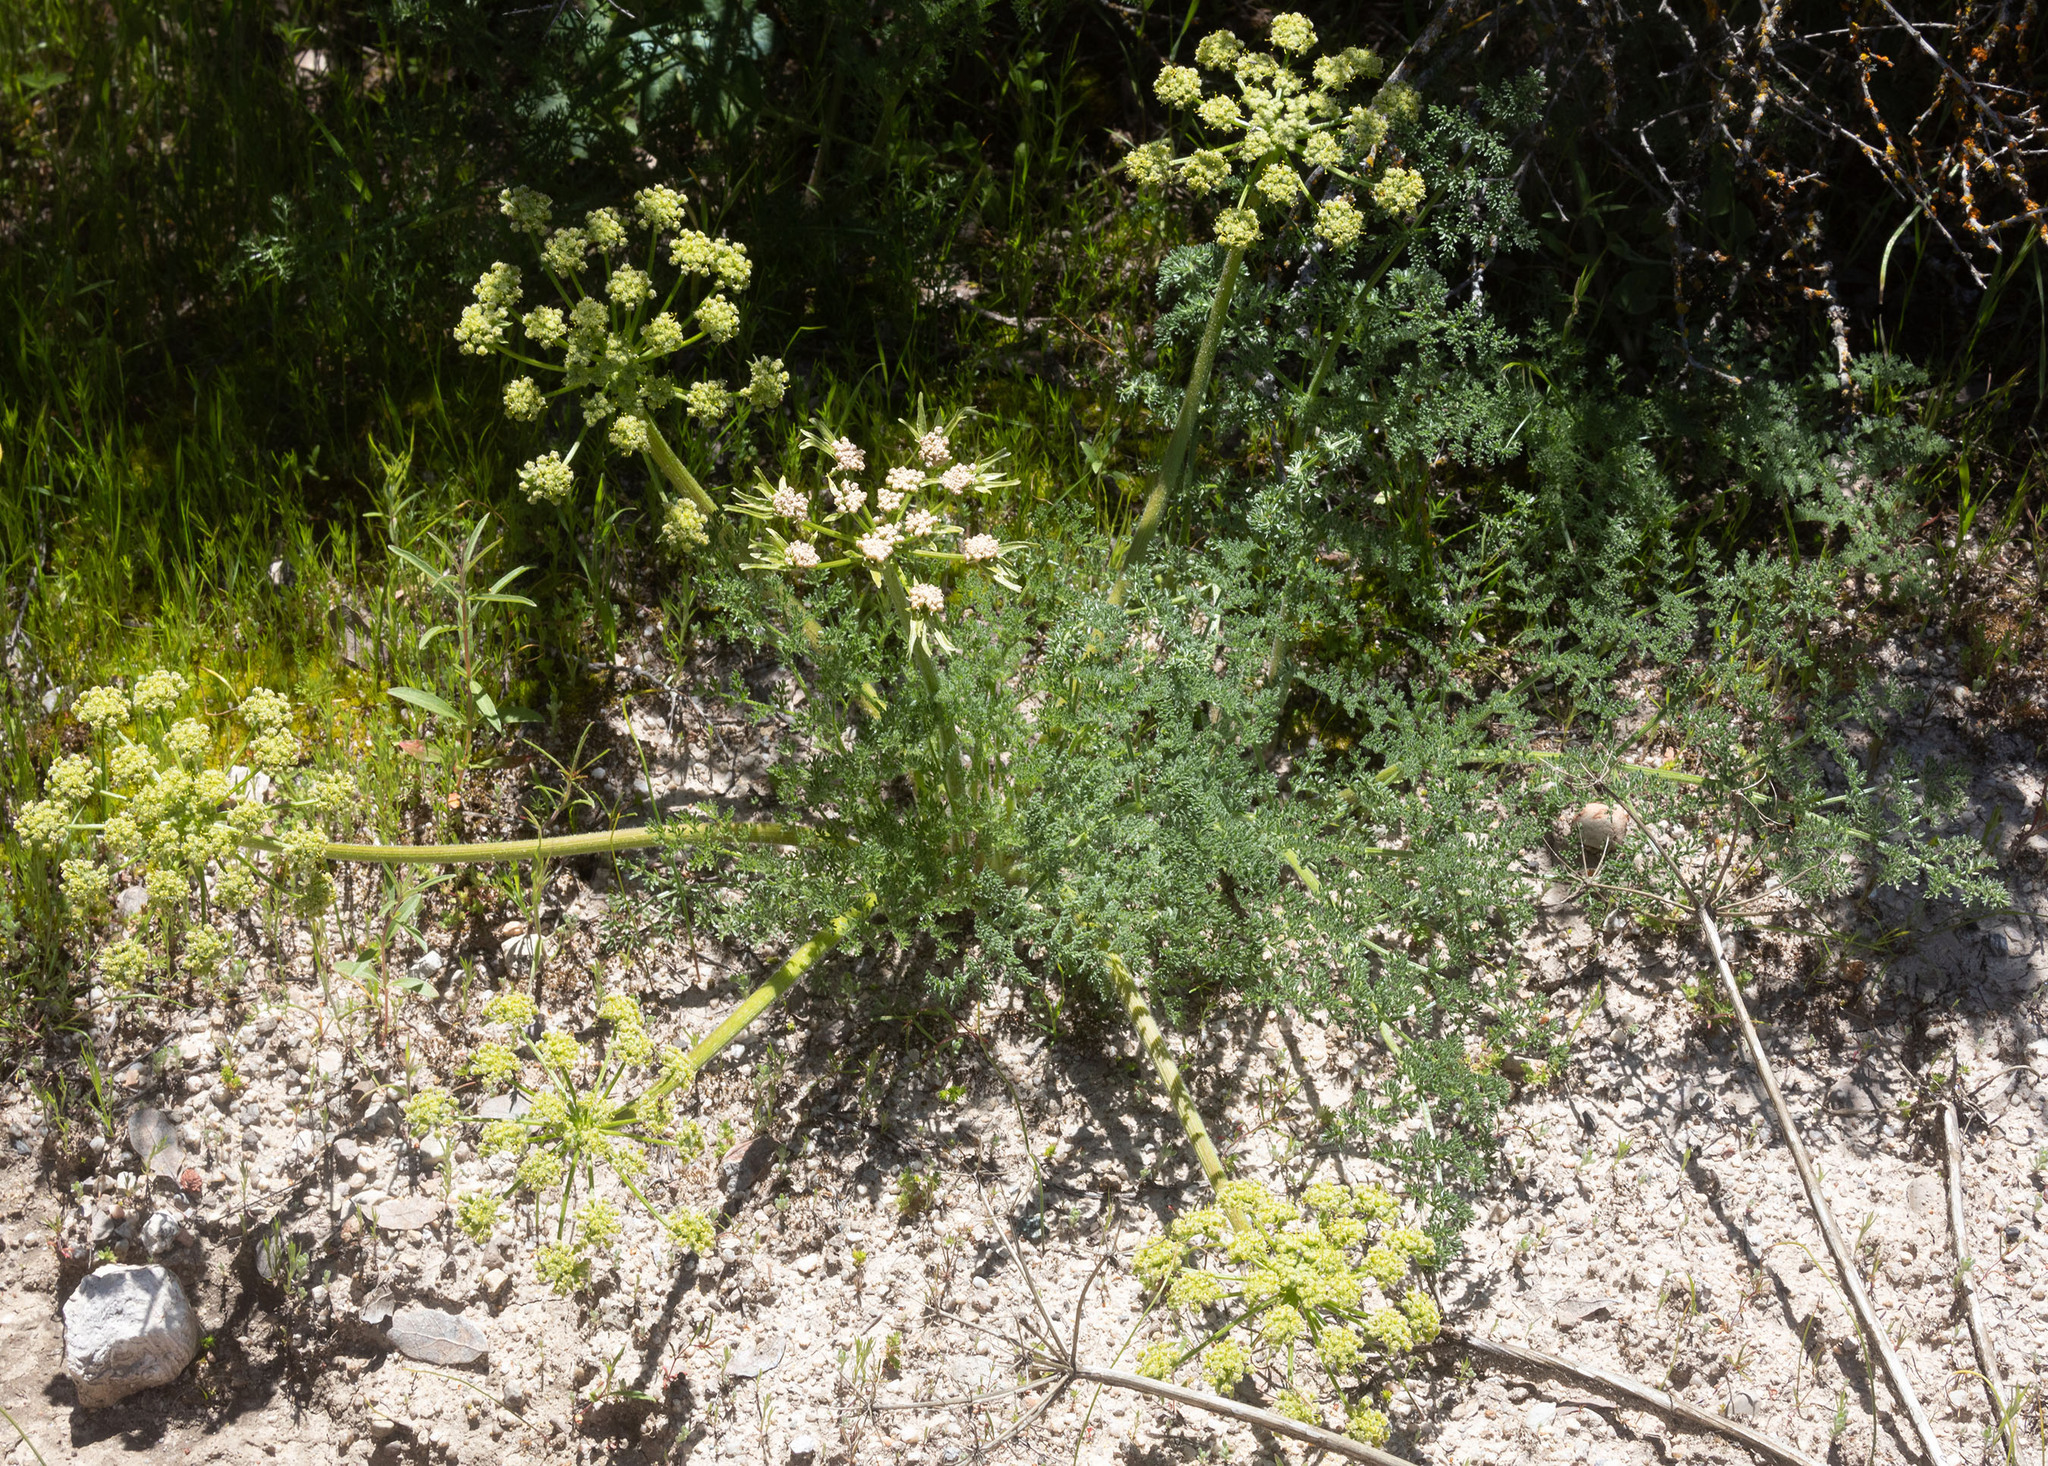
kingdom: Plantae
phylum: Tracheophyta
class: Magnoliopsida
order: Apiales
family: Apiaceae
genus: Lomatium
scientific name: Lomatium dasycarpum
